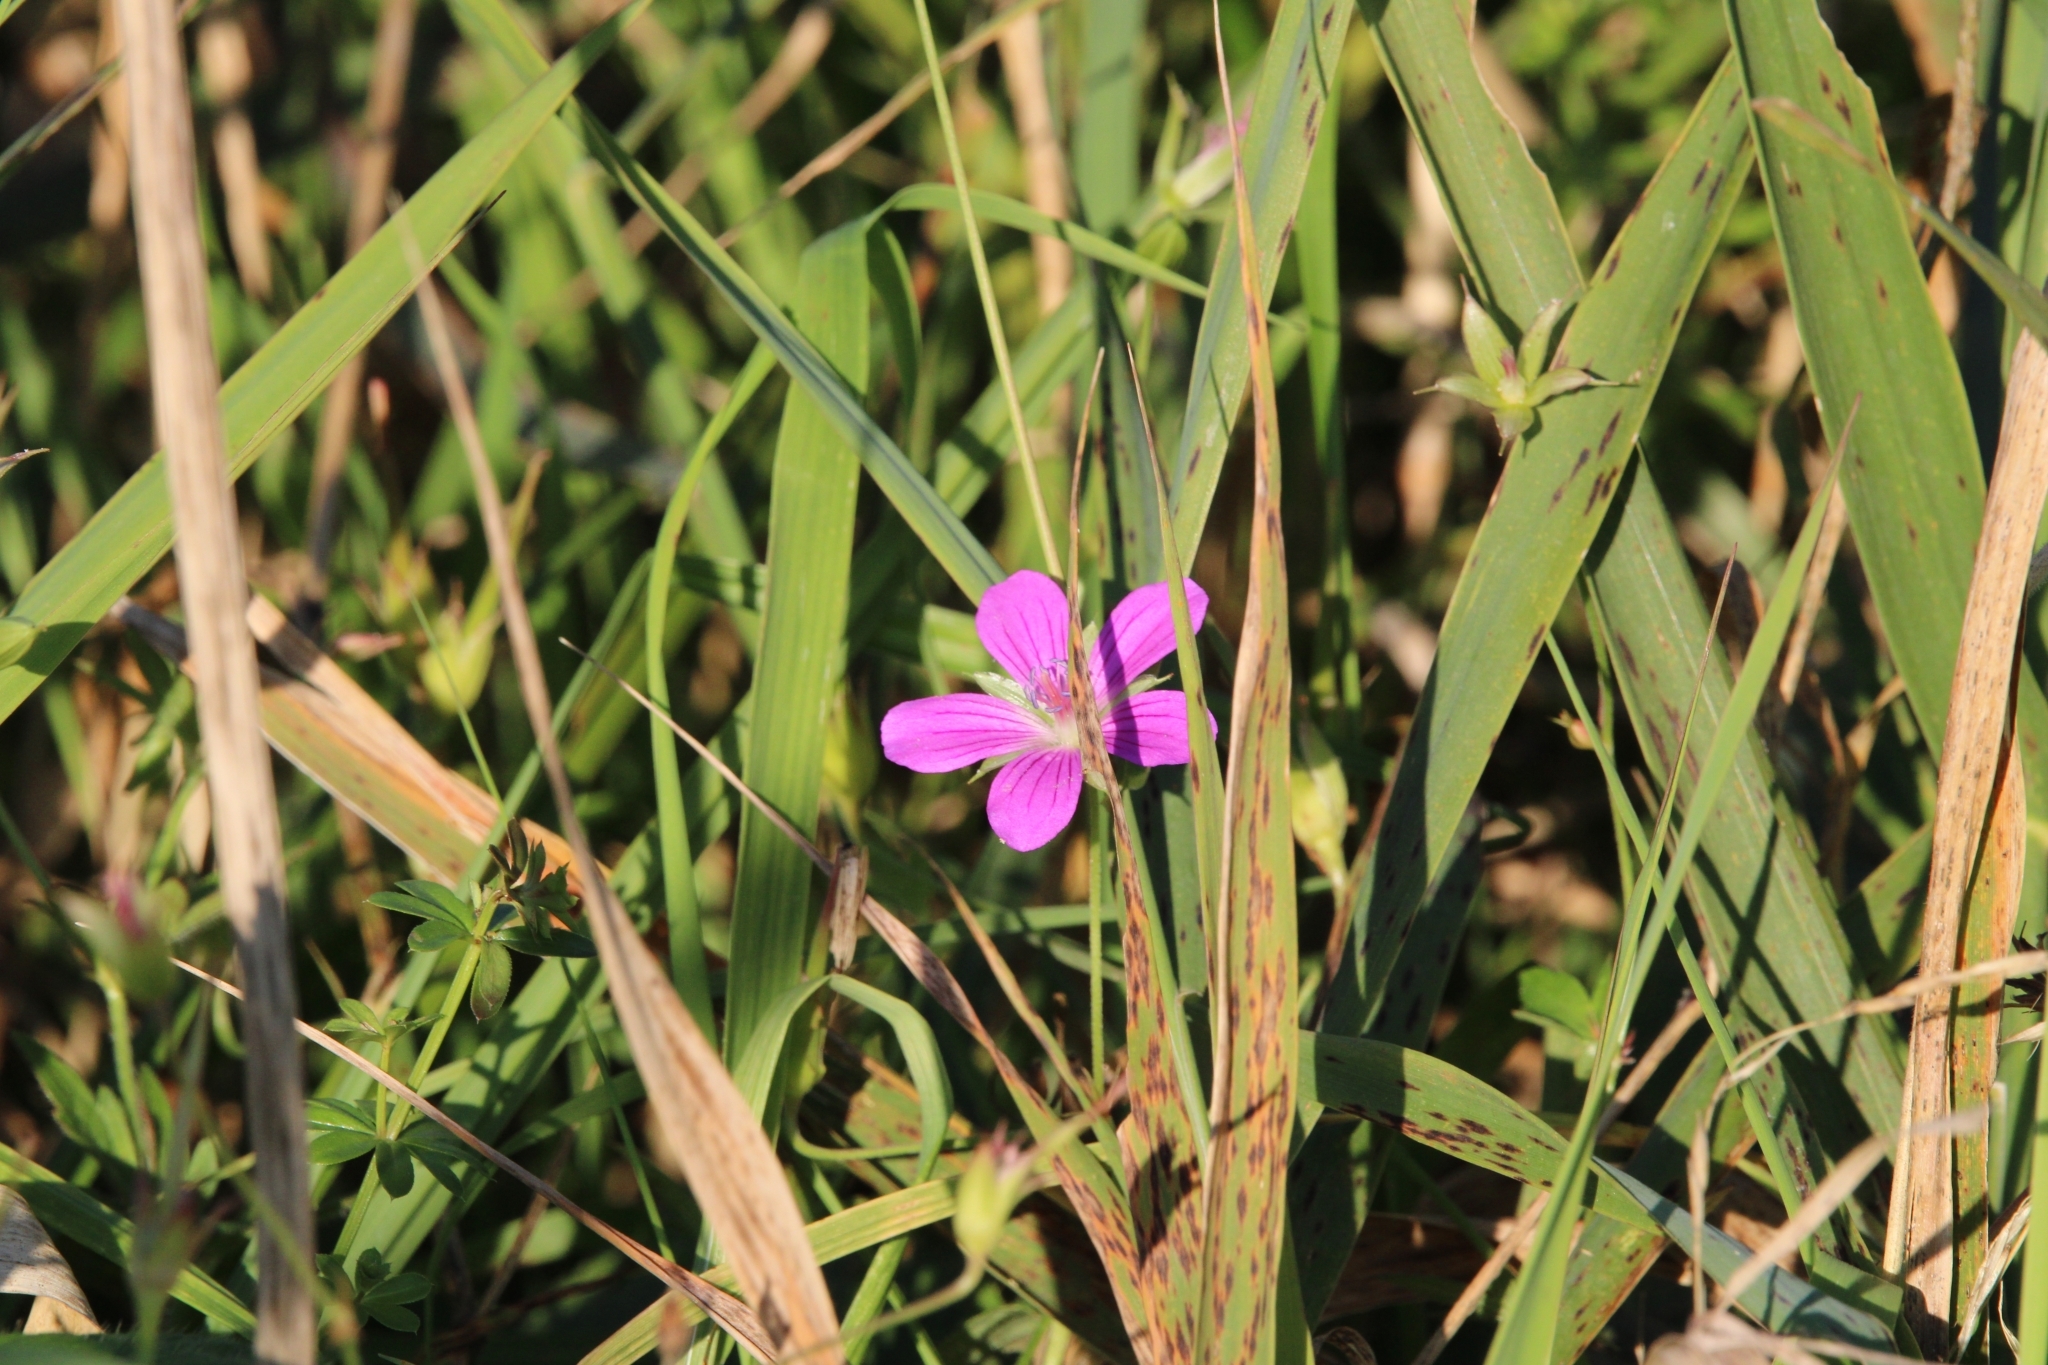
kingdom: Plantae
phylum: Tracheophyta
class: Magnoliopsida
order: Geraniales
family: Geraniaceae
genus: Geranium
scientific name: Geranium palustre
